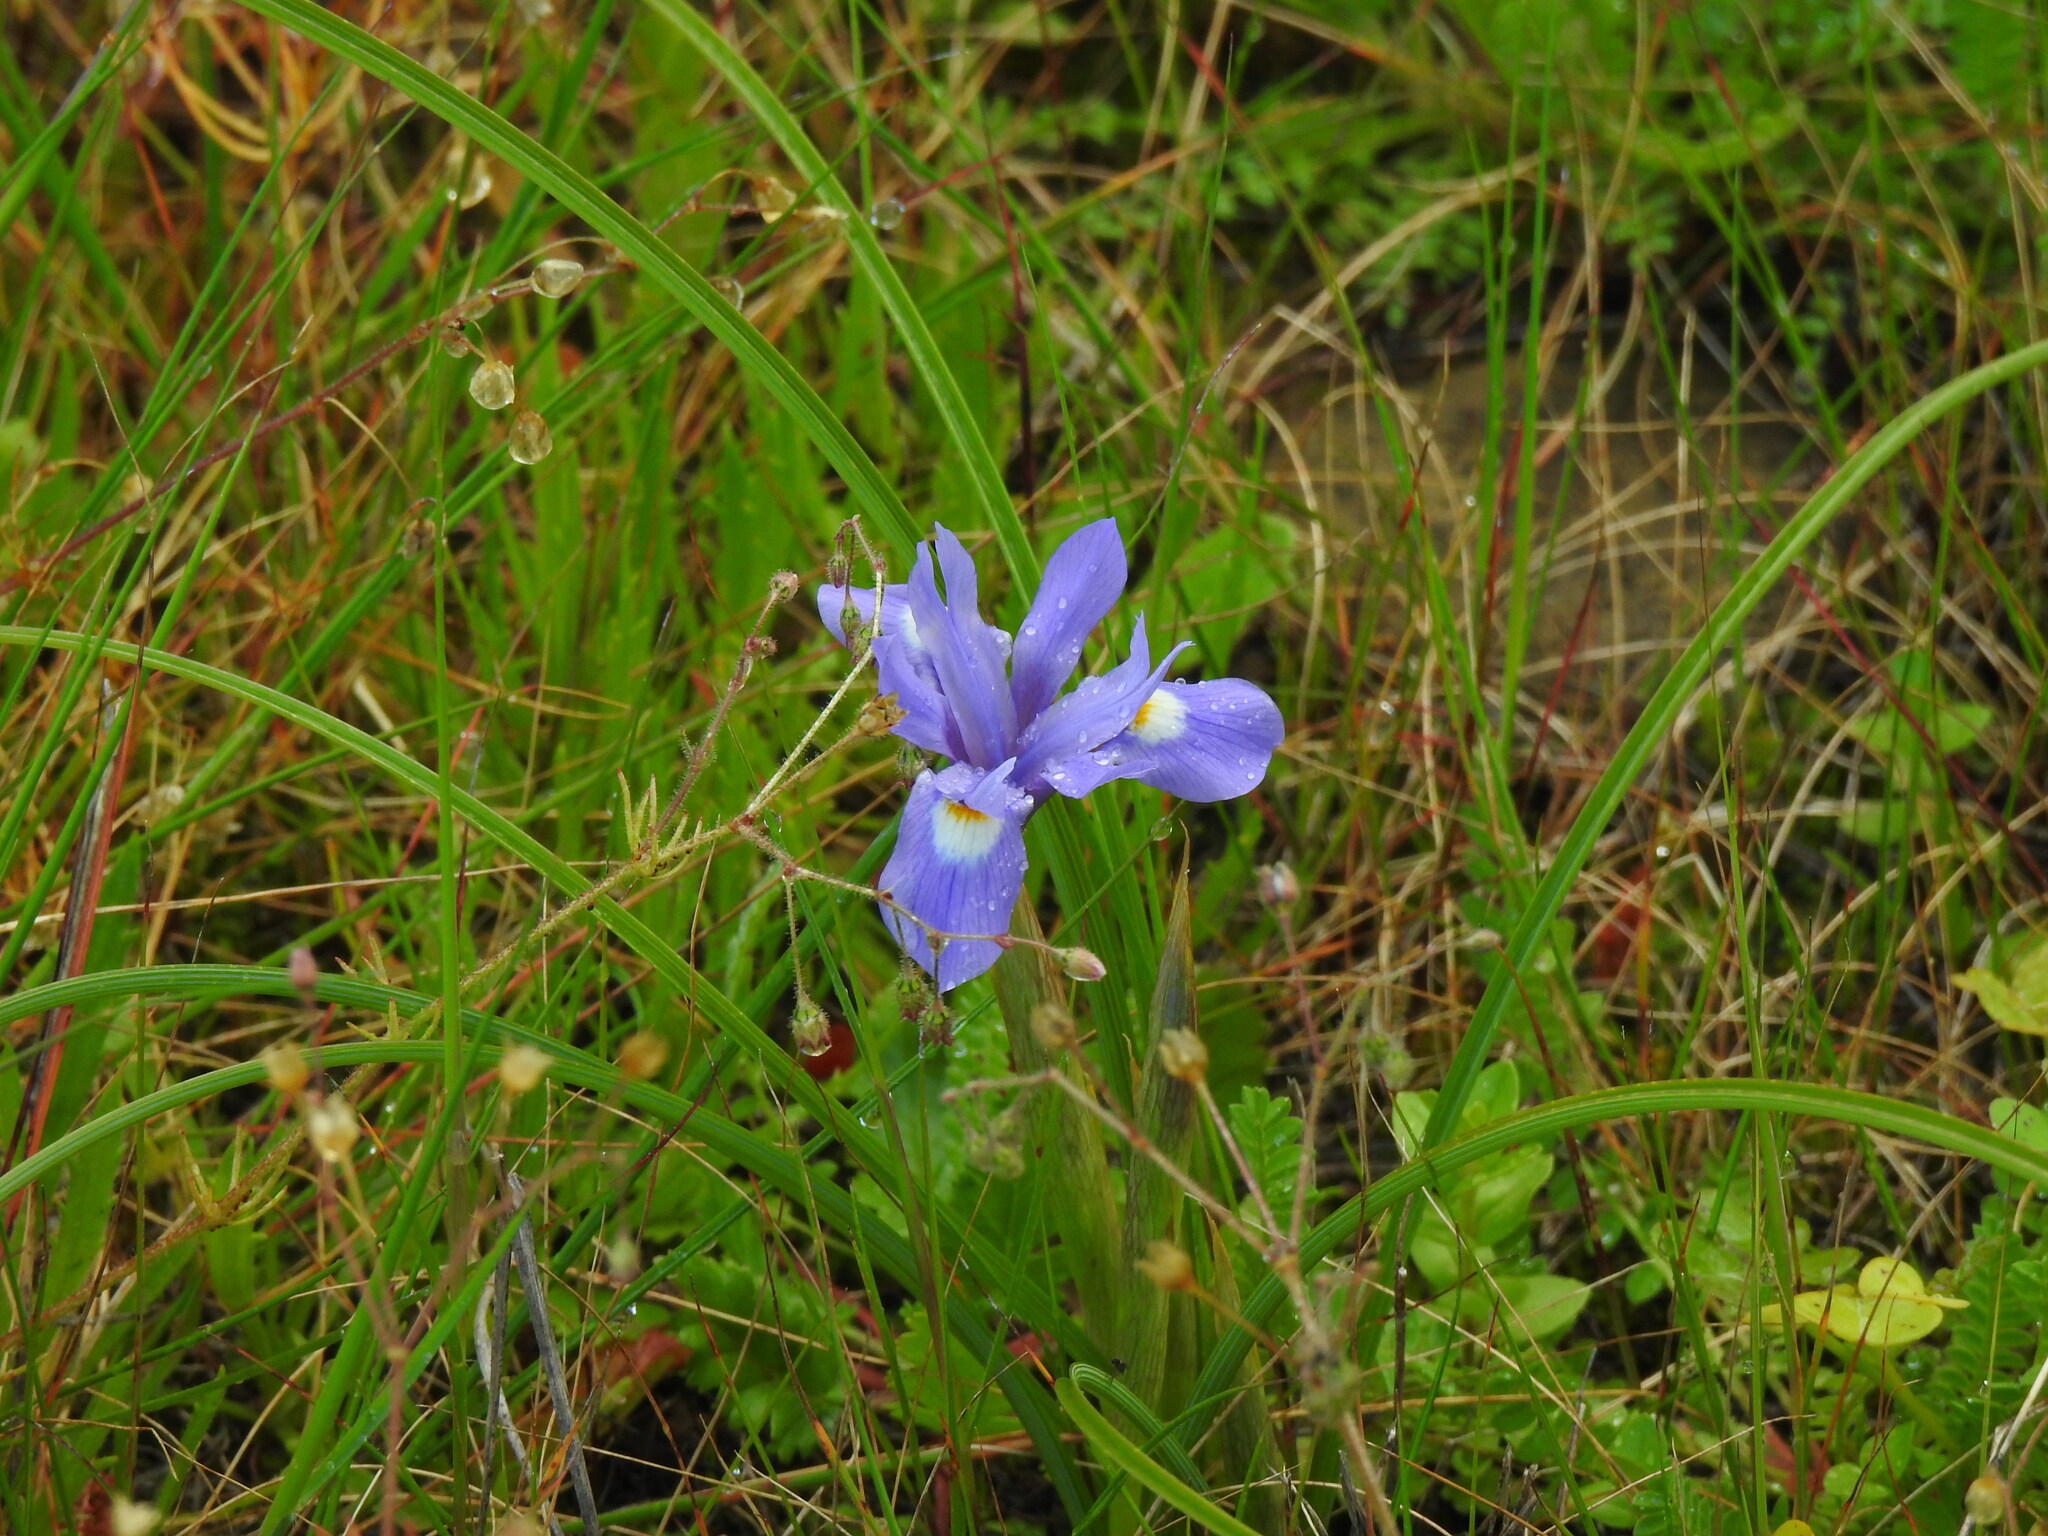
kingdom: Plantae
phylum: Tracheophyta
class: Liliopsida
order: Asparagales
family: Iridaceae
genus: Moraea
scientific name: Moraea sisyrinchium
